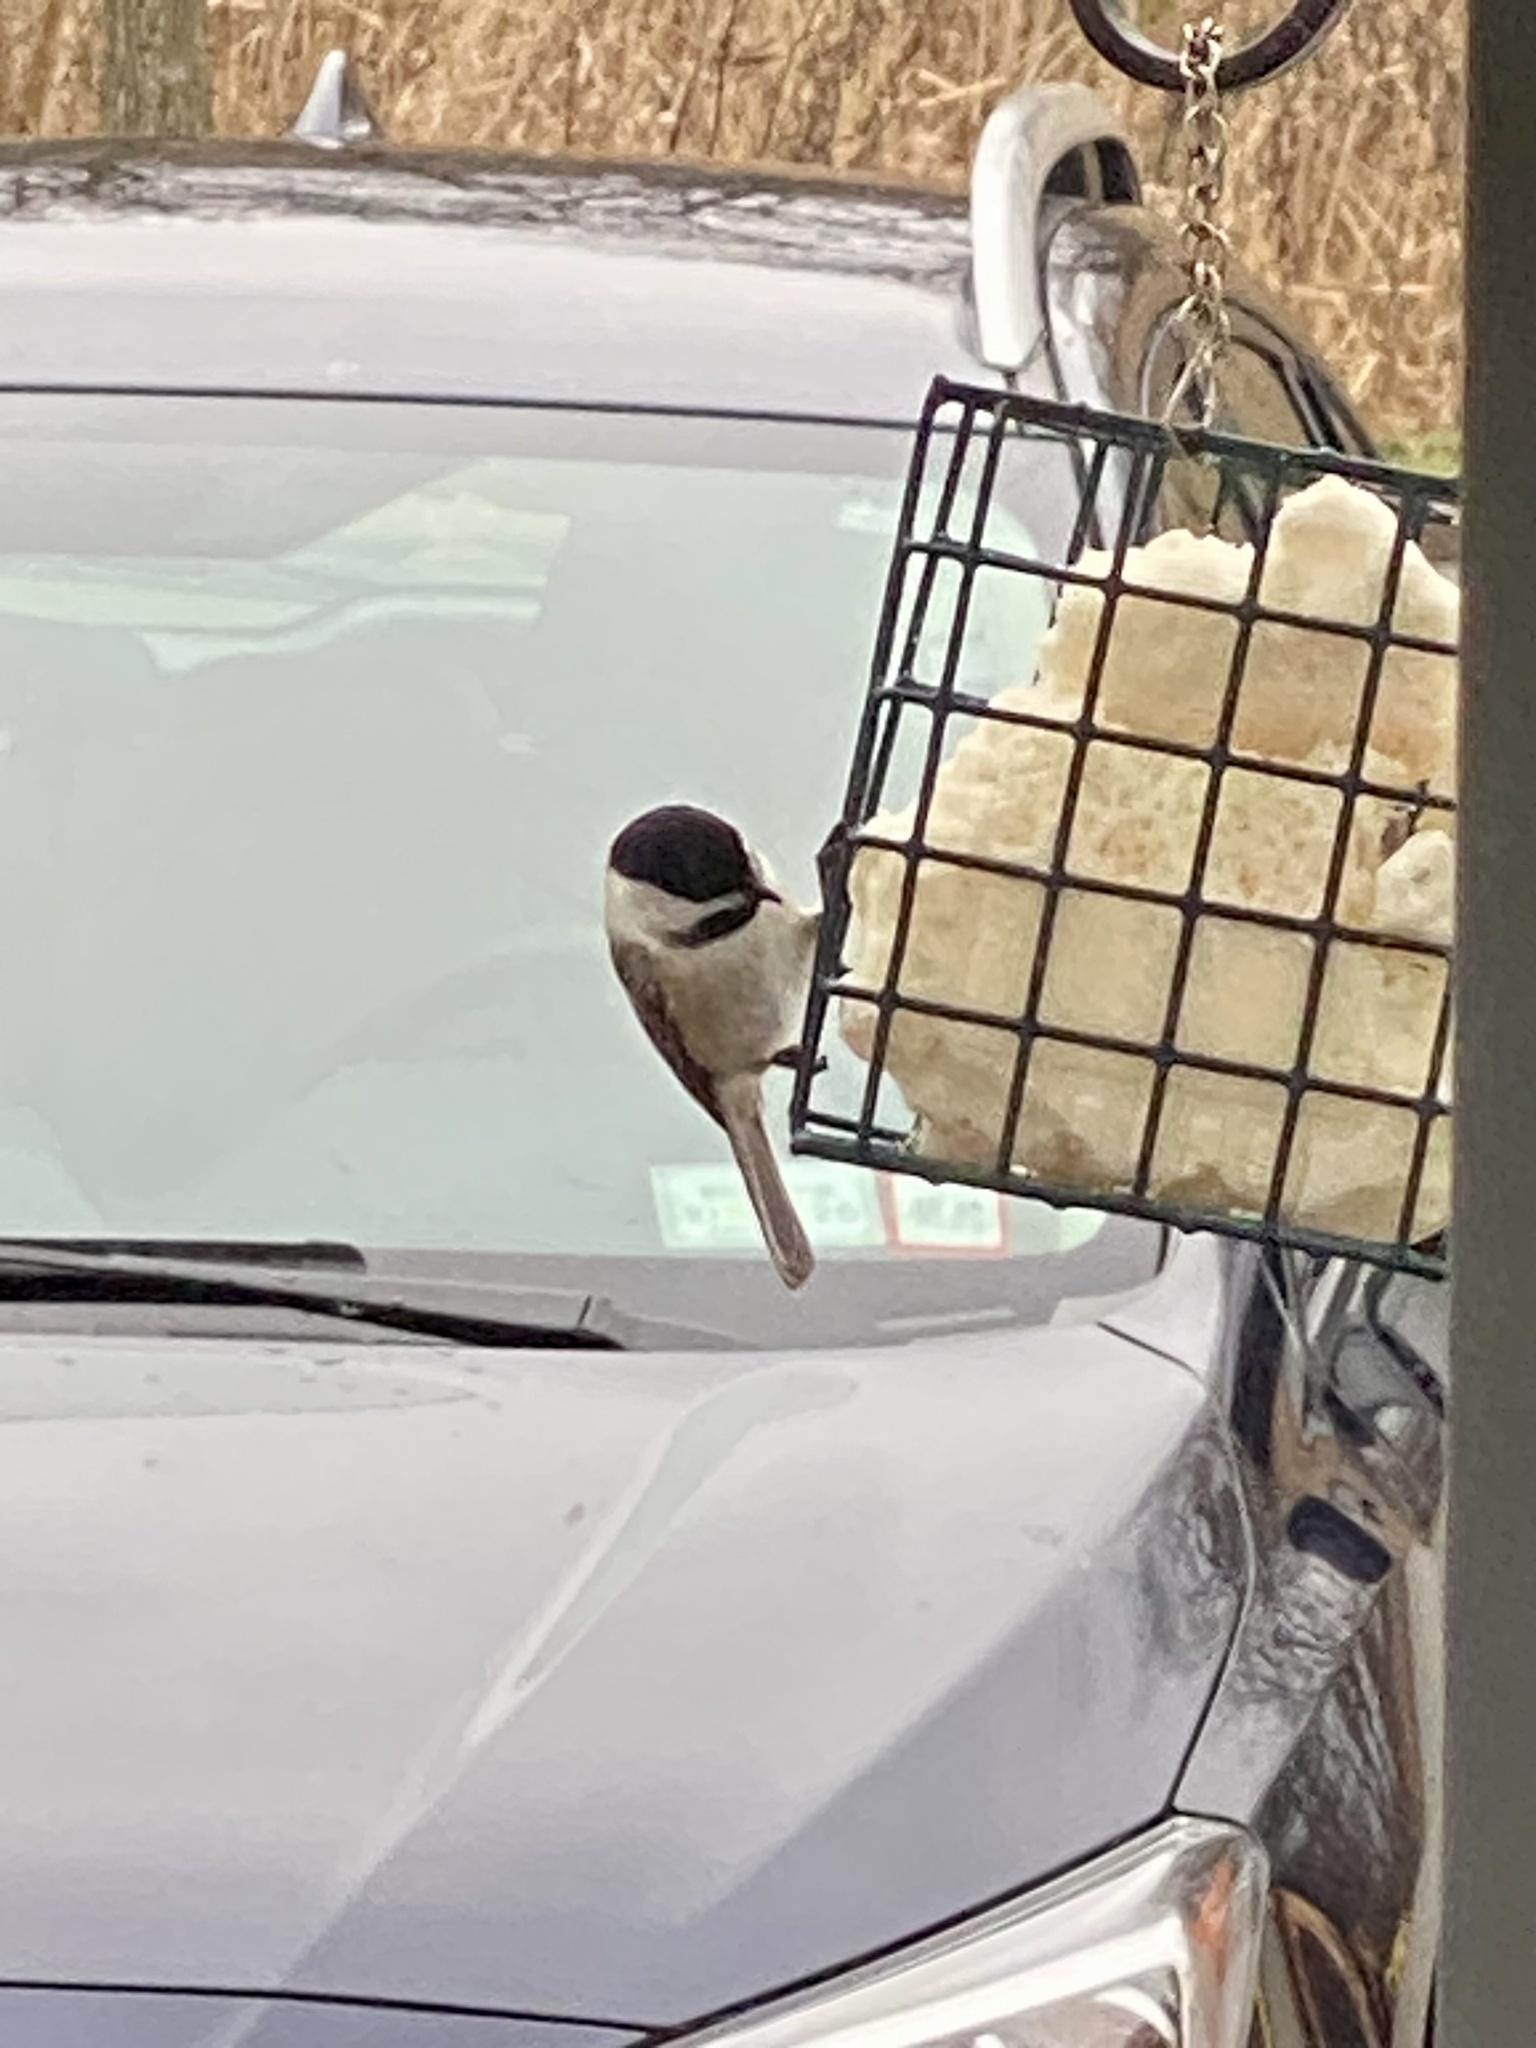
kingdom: Animalia
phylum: Chordata
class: Aves
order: Passeriformes
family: Paridae
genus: Poecile
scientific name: Poecile atricapillus
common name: Black-capped chickadee
